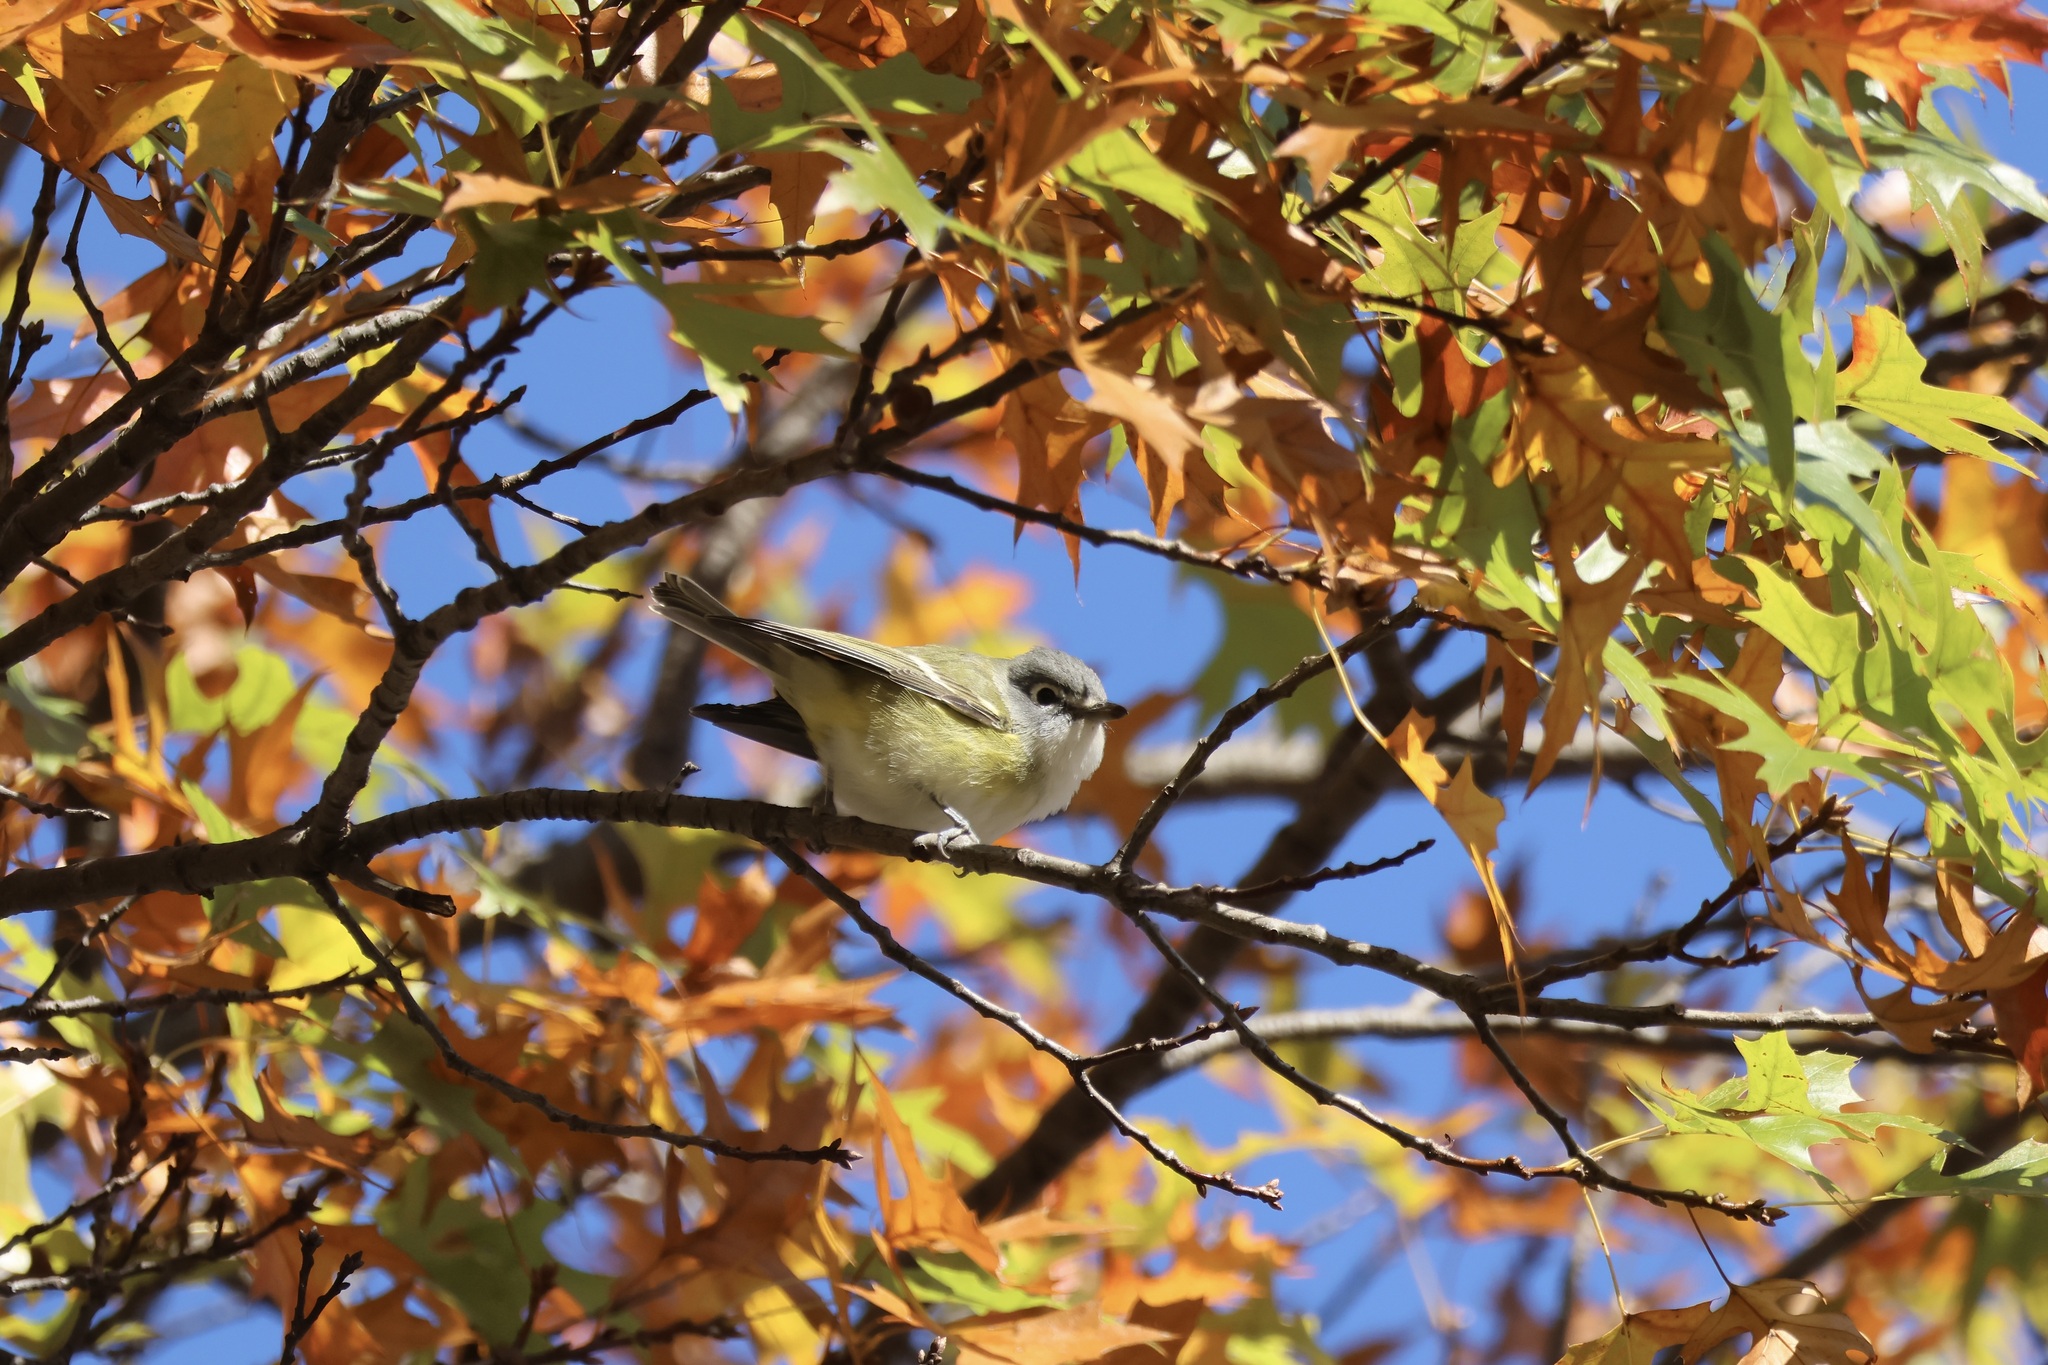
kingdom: Animalia
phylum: Chordata
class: Aves
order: Passeriformes
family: Vireonidae
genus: Vireo
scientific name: Vireo solitarius
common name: Blue-headed vireo
